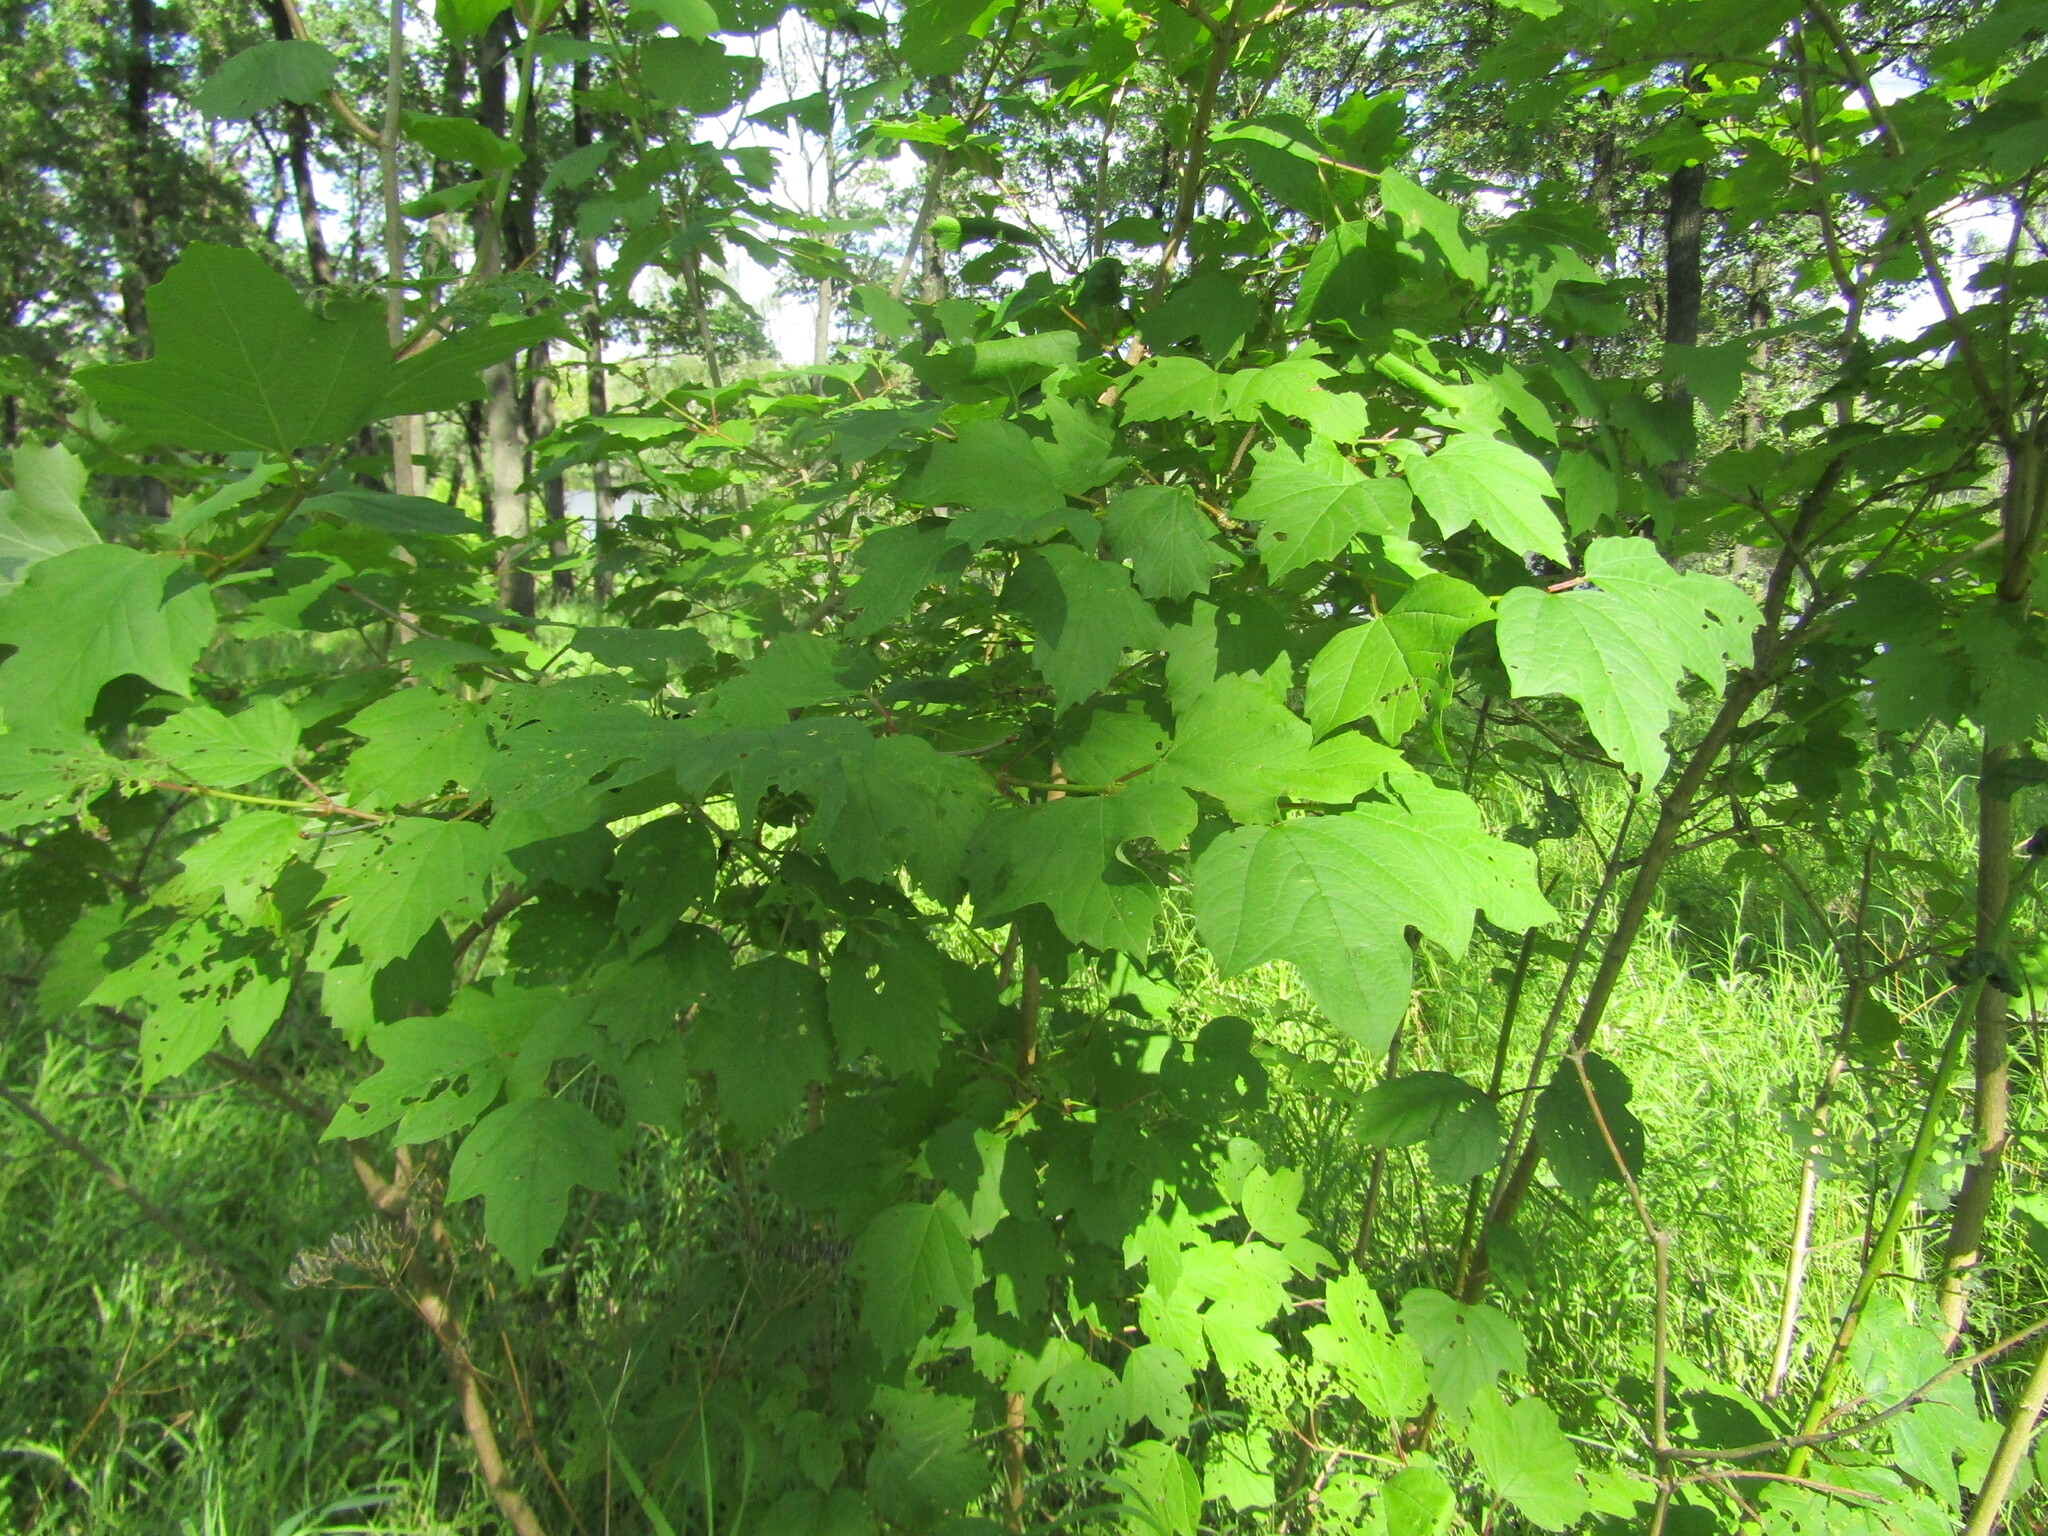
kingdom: Plantae
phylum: Tracheophyta
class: Magnoliopsida
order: Dipsacales
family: Viburnaceae
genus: Viburnum
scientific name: Viburnum opulus
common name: Guelder-rose
